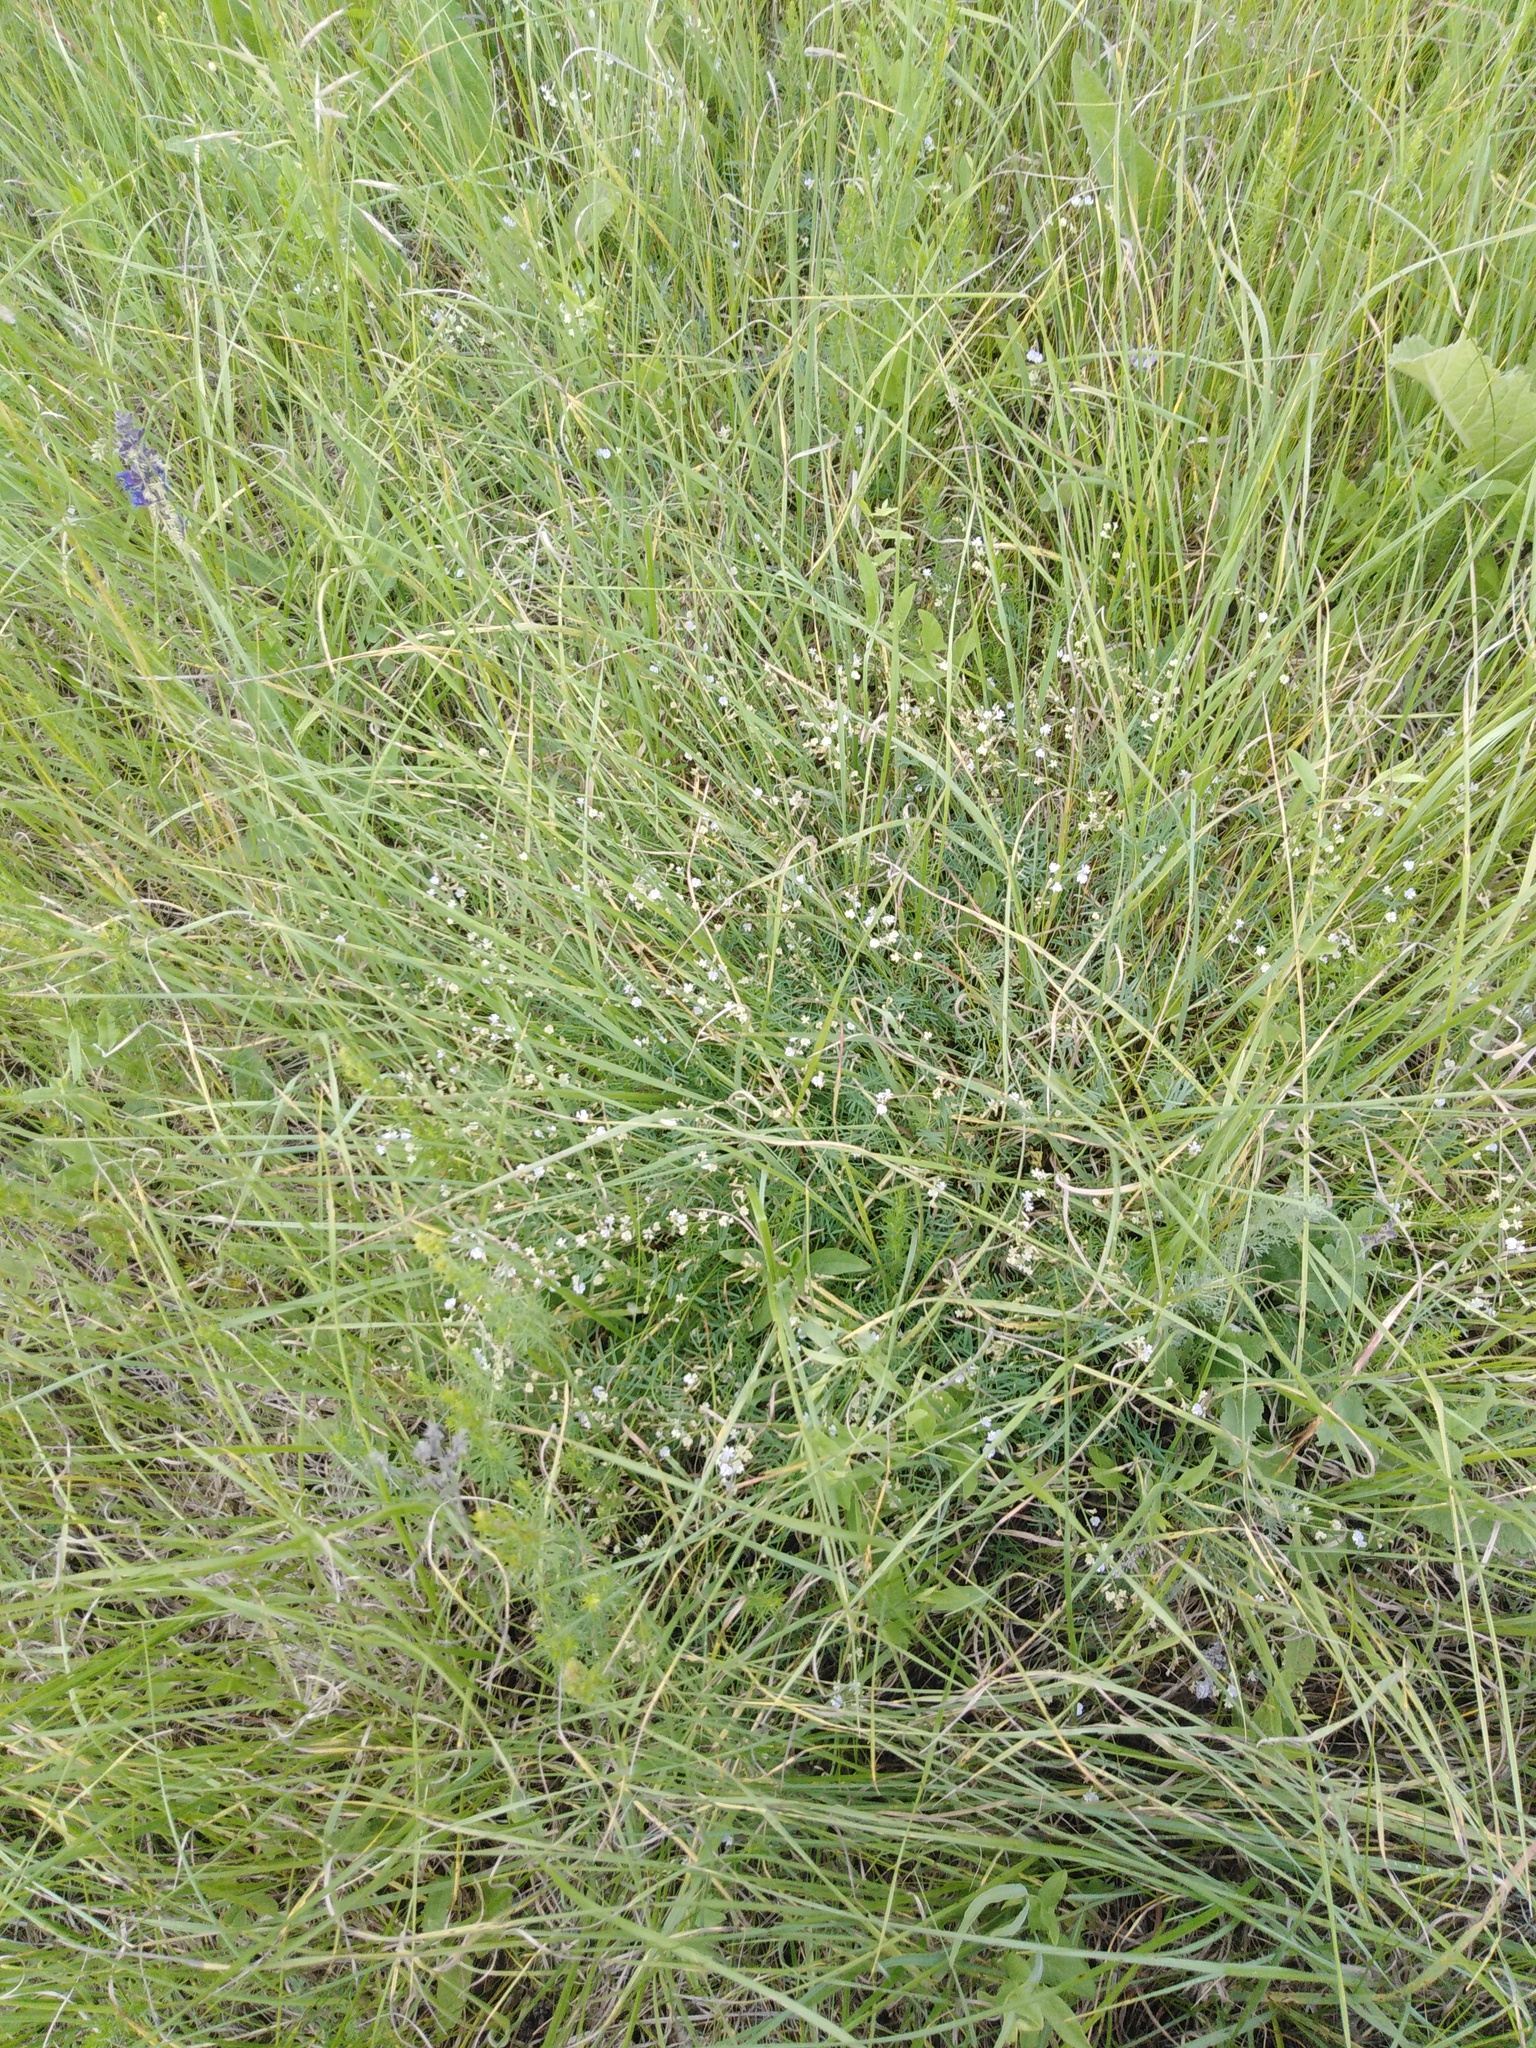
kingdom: Plantae
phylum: Tracheophyta
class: Magnoliopsida
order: Fabales
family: Fabaceae
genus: Astragalus
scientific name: Astragalus austriacus
